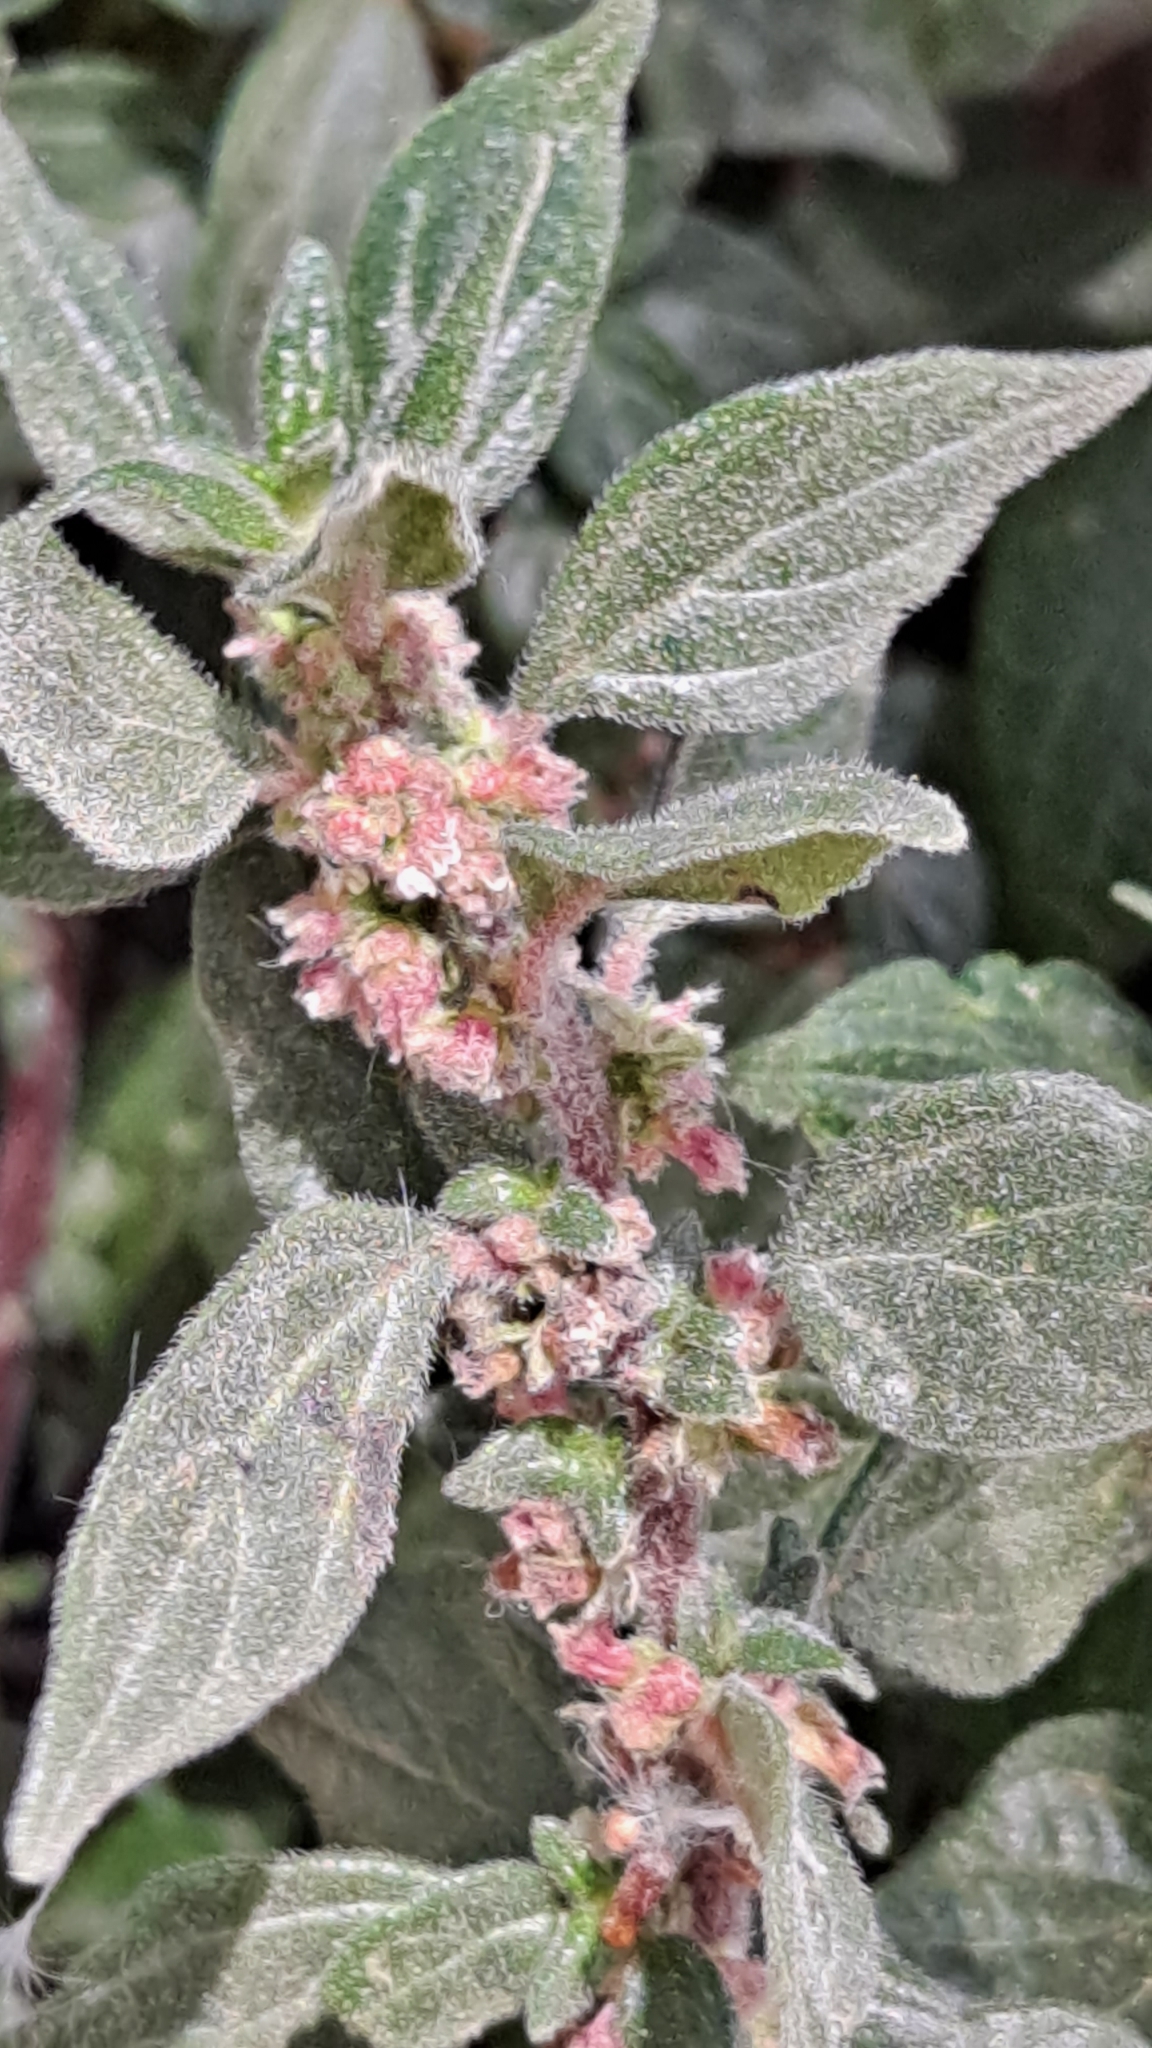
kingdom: Plantae
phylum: Tracheophyta
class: Magnoliopsida
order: Rosales
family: Urticaceae
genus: Parietaria
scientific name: Parietaria judaica
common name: Pellitory-of-the-wall
